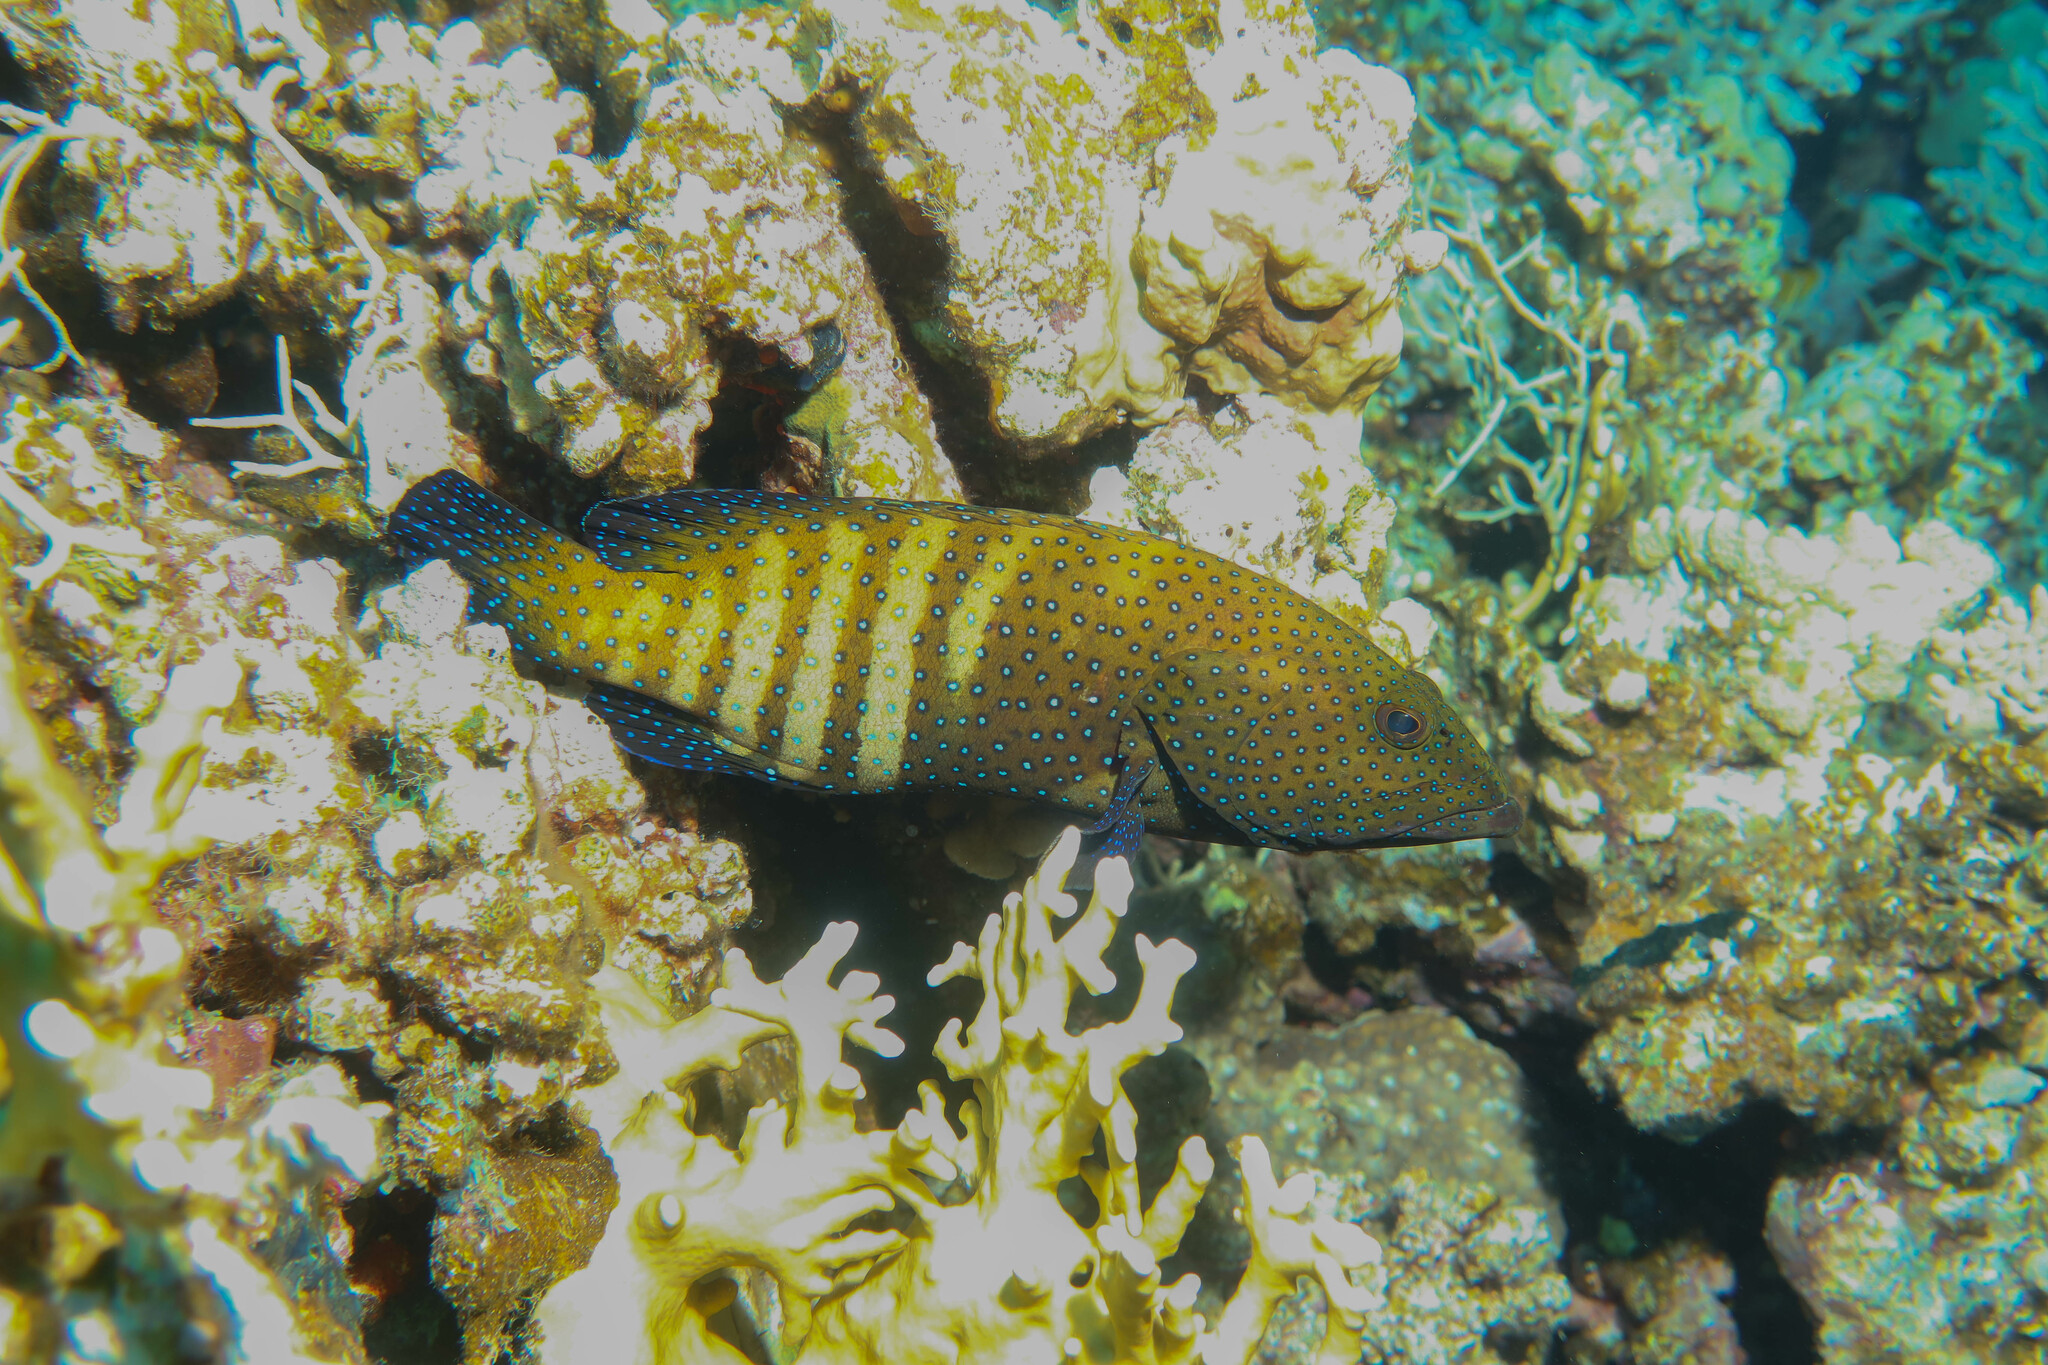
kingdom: Animalia
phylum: Chordata
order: Perciformes
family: Serranidae
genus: Cephalopholis
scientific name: Cephalopholis argus
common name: Peacock grouper
